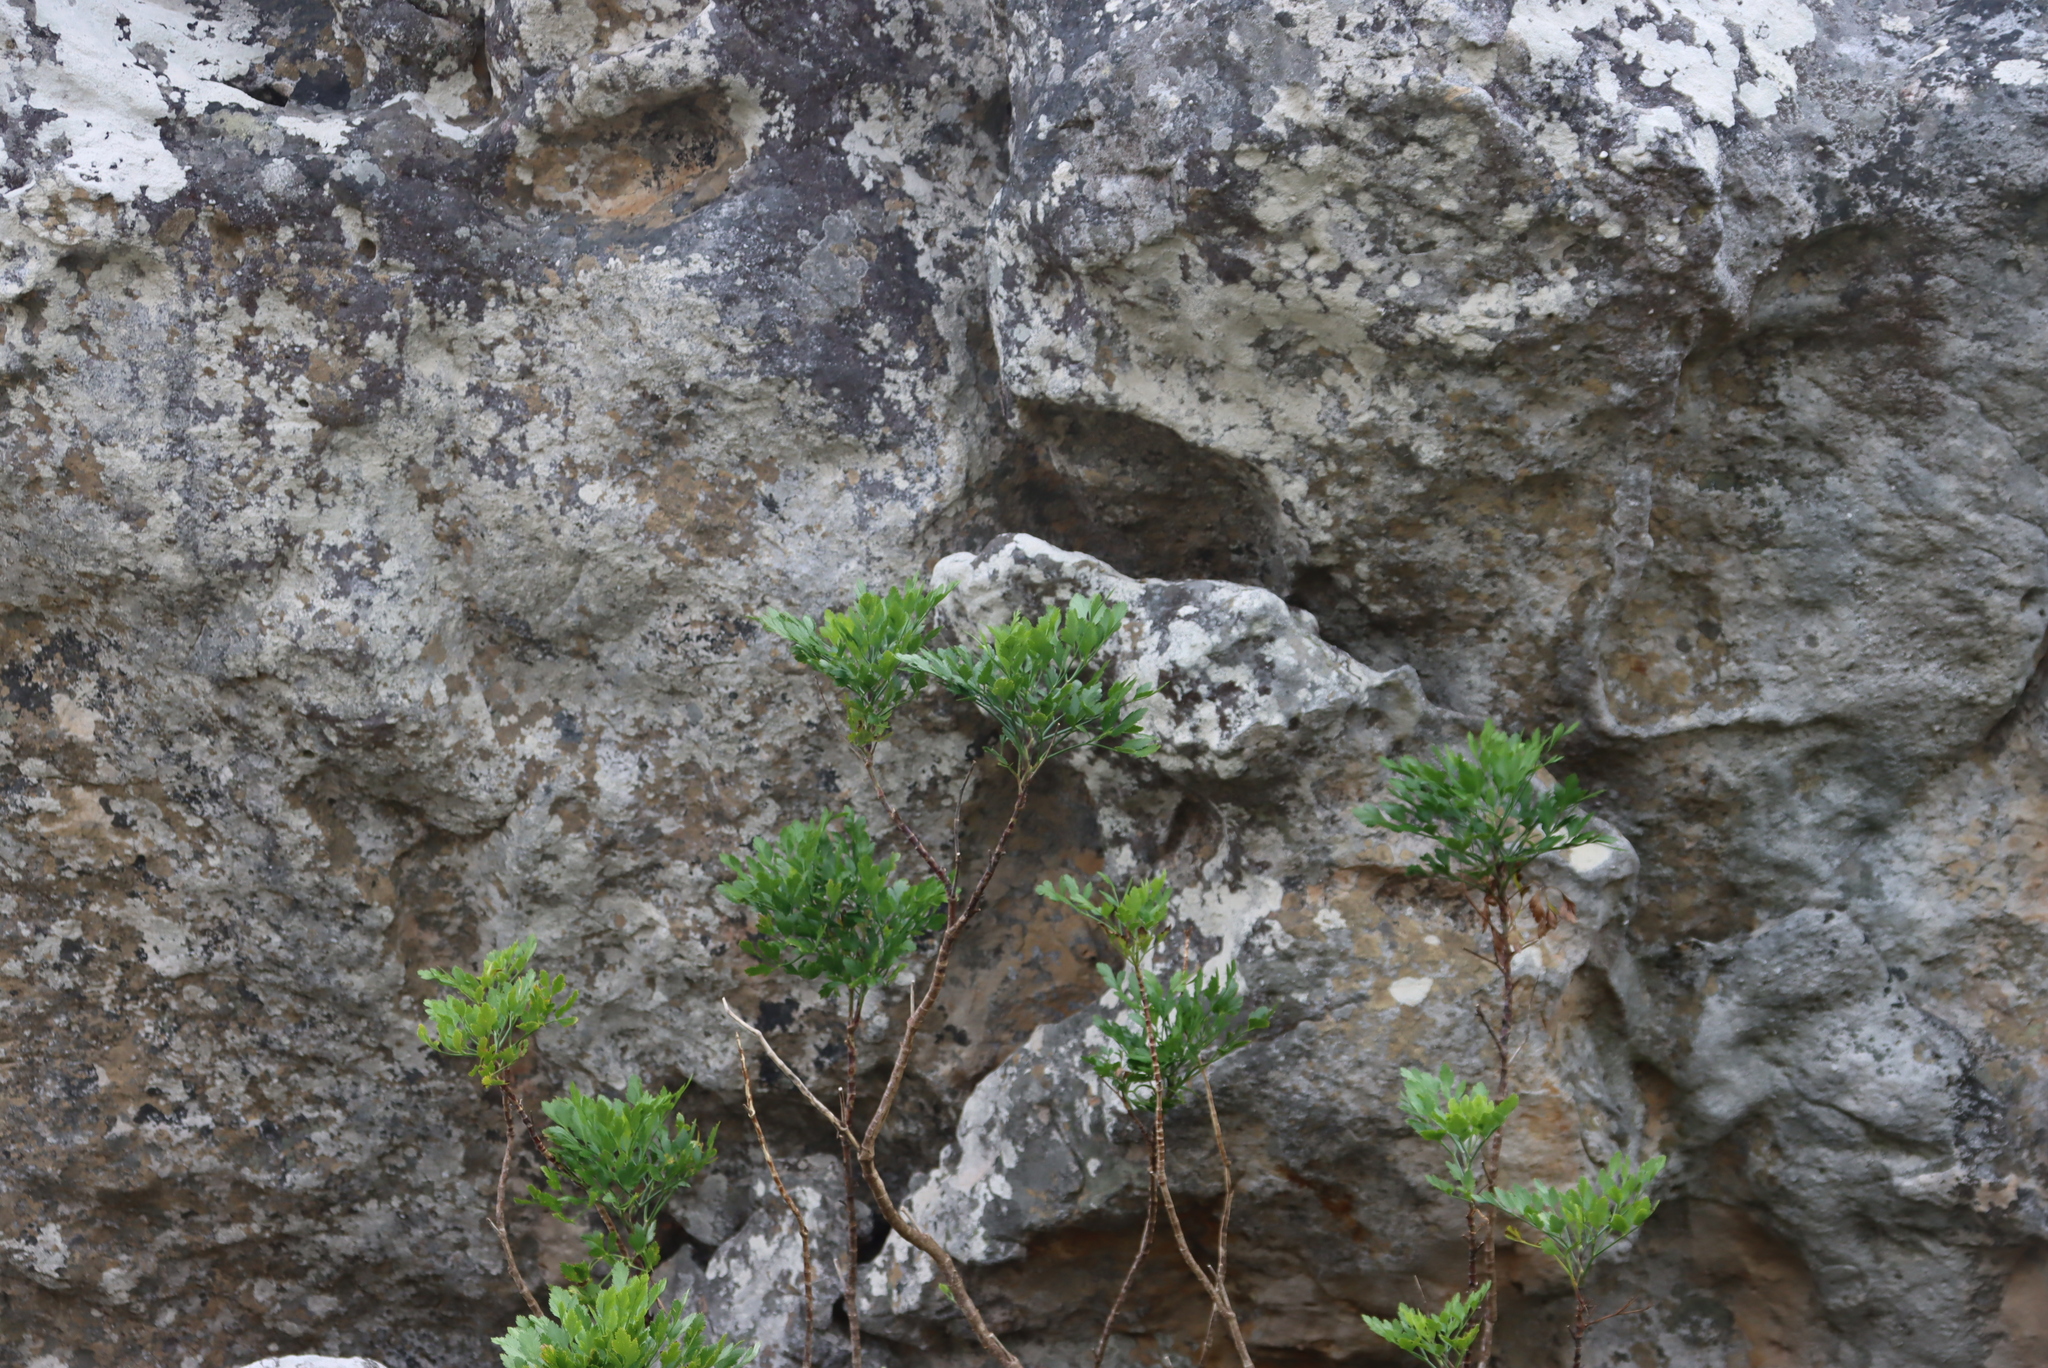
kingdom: Plantae
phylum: Tracheophyta
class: Magnoliopsida
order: Apiales
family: Apiaceae
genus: Notobubon
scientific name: Notobubon galbanum
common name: Blisterbush
